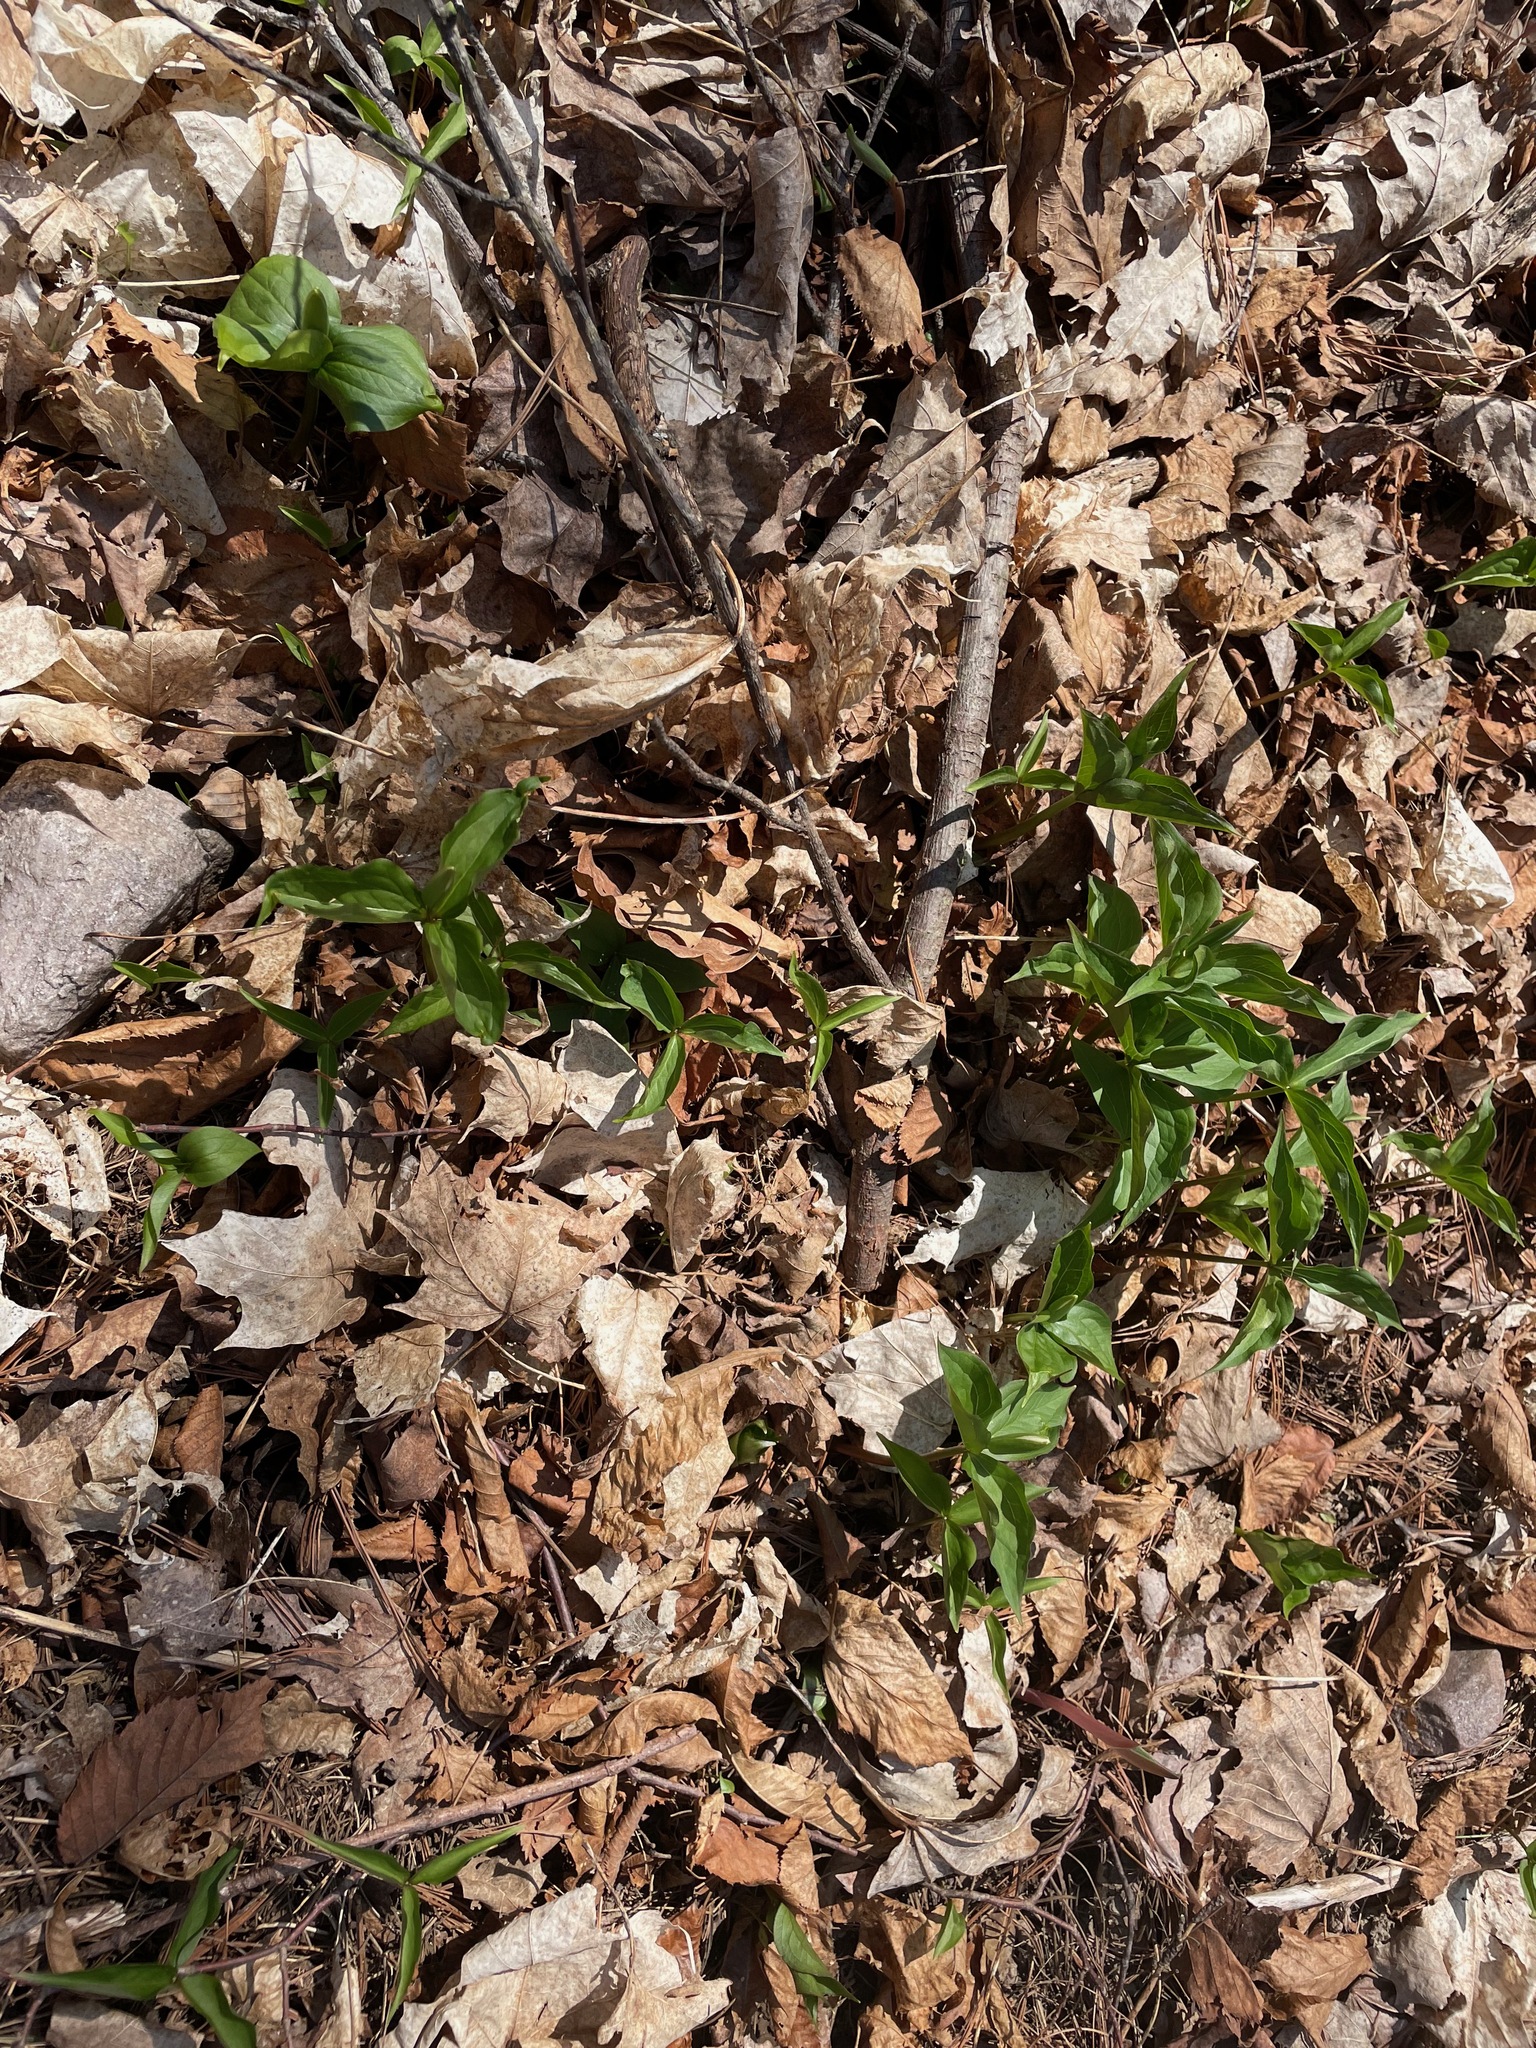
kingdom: Plantae
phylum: Tracheophyta
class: Liliopsida
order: Liliales
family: Melanthiaceae
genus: Trillium
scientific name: Trillium grandiflorum
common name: Great white trillium
